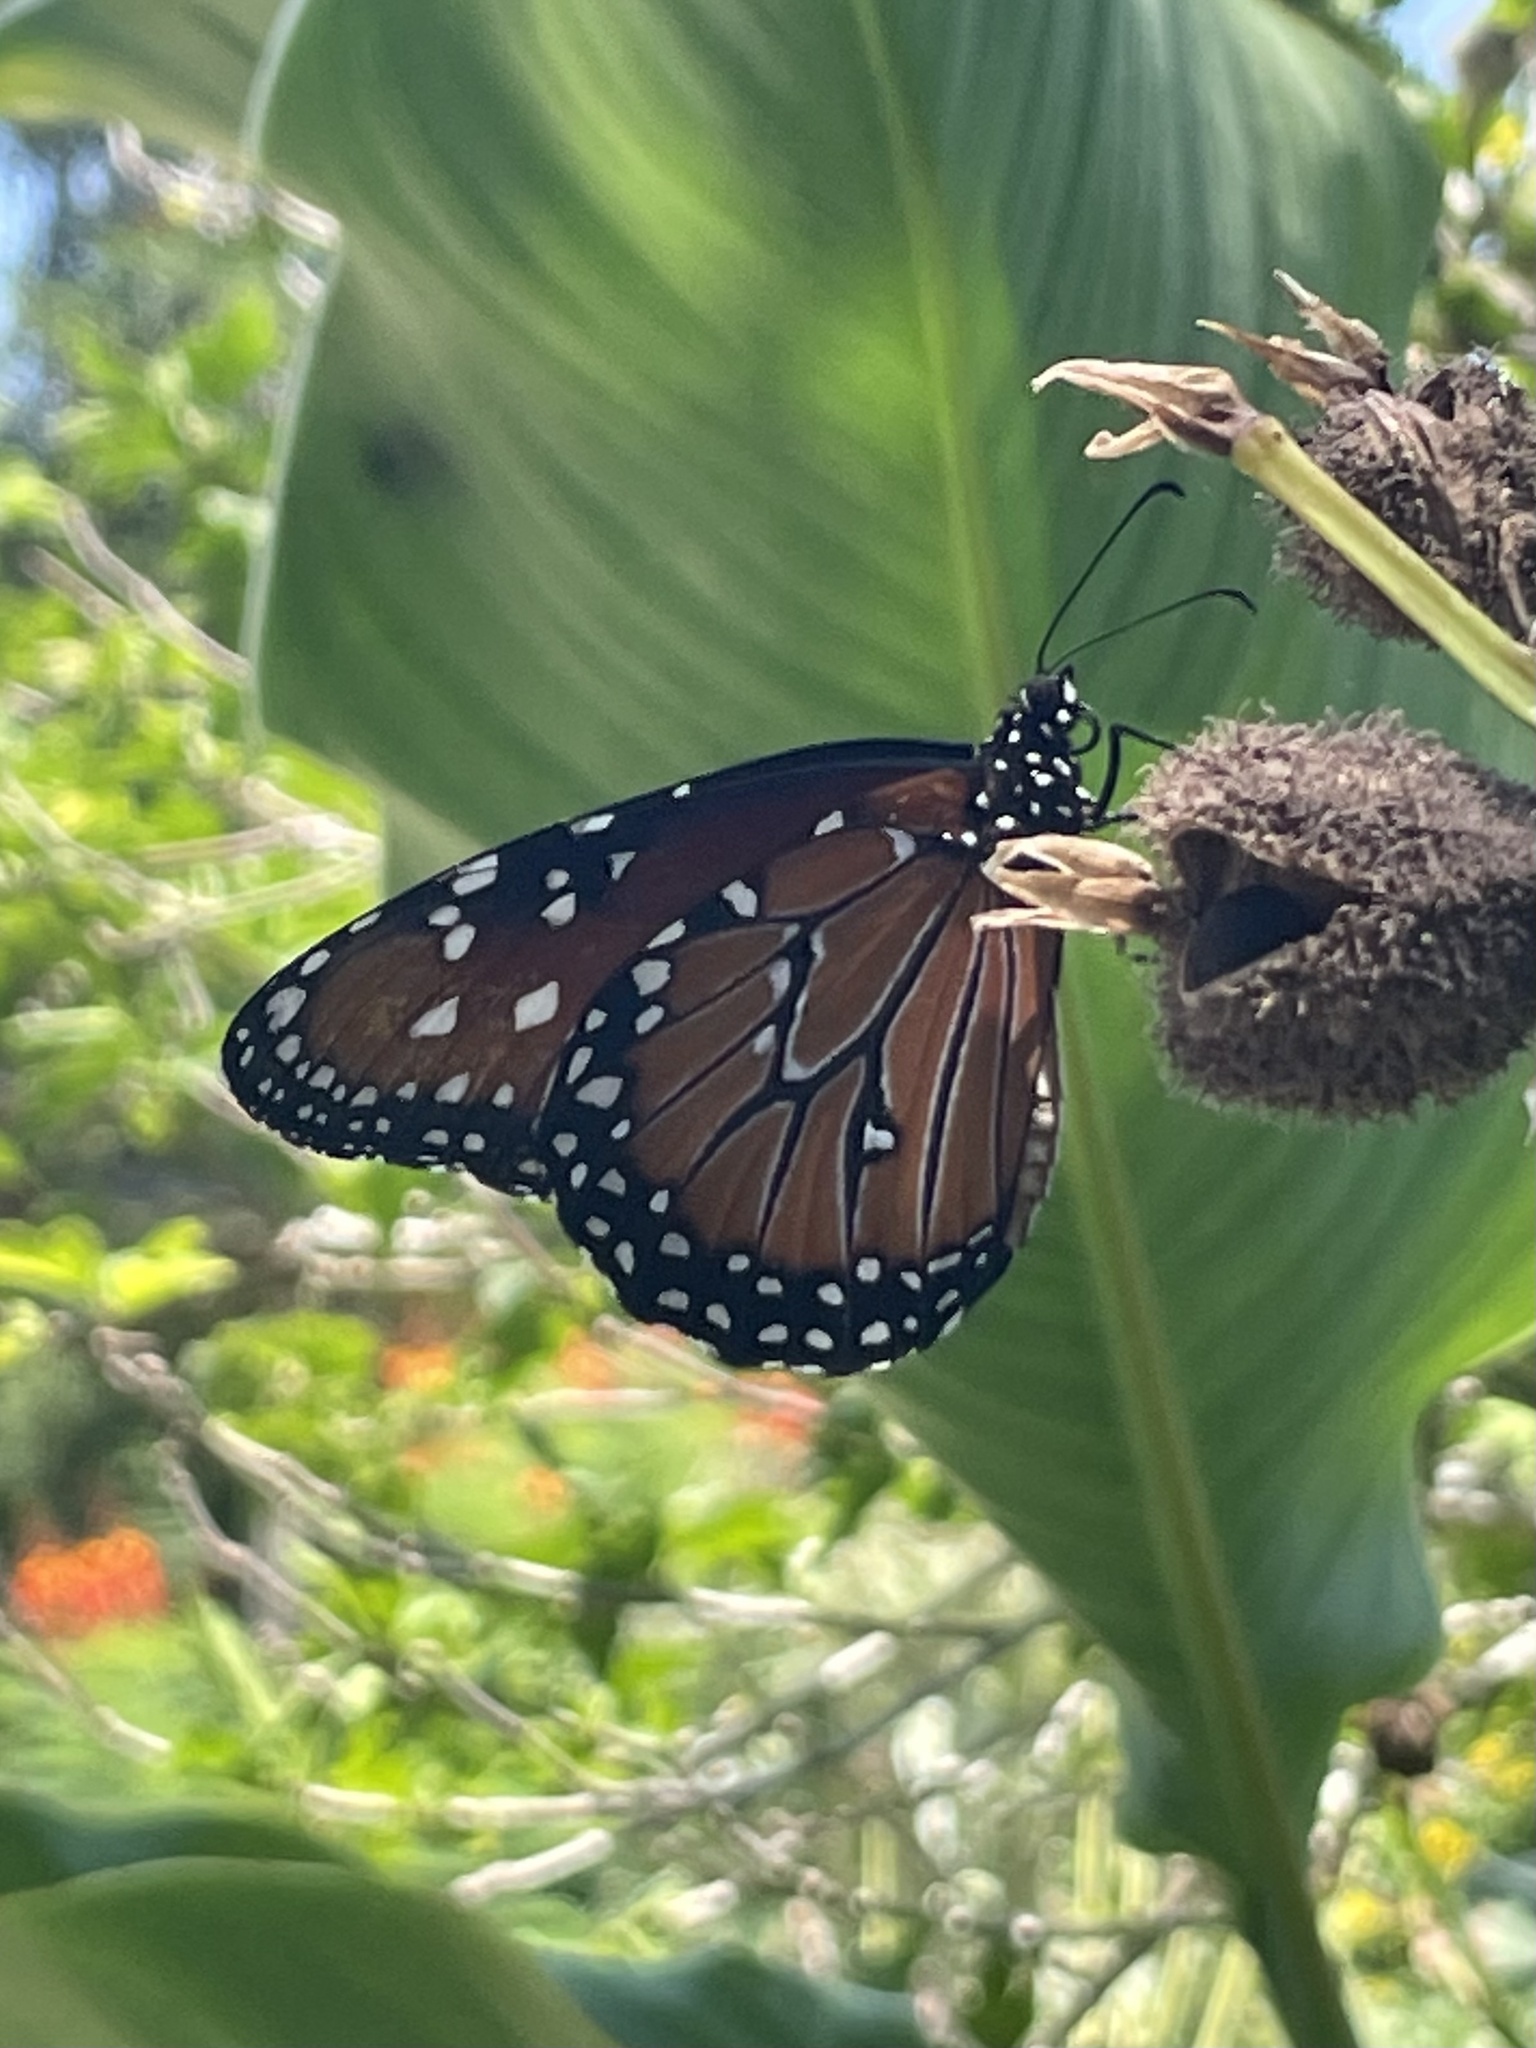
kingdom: Animalia
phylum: Arthropoda
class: Insecta
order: Lepidoptera
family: Nymphalidae
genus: Danaus
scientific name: Danaus gilippus
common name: Queen
